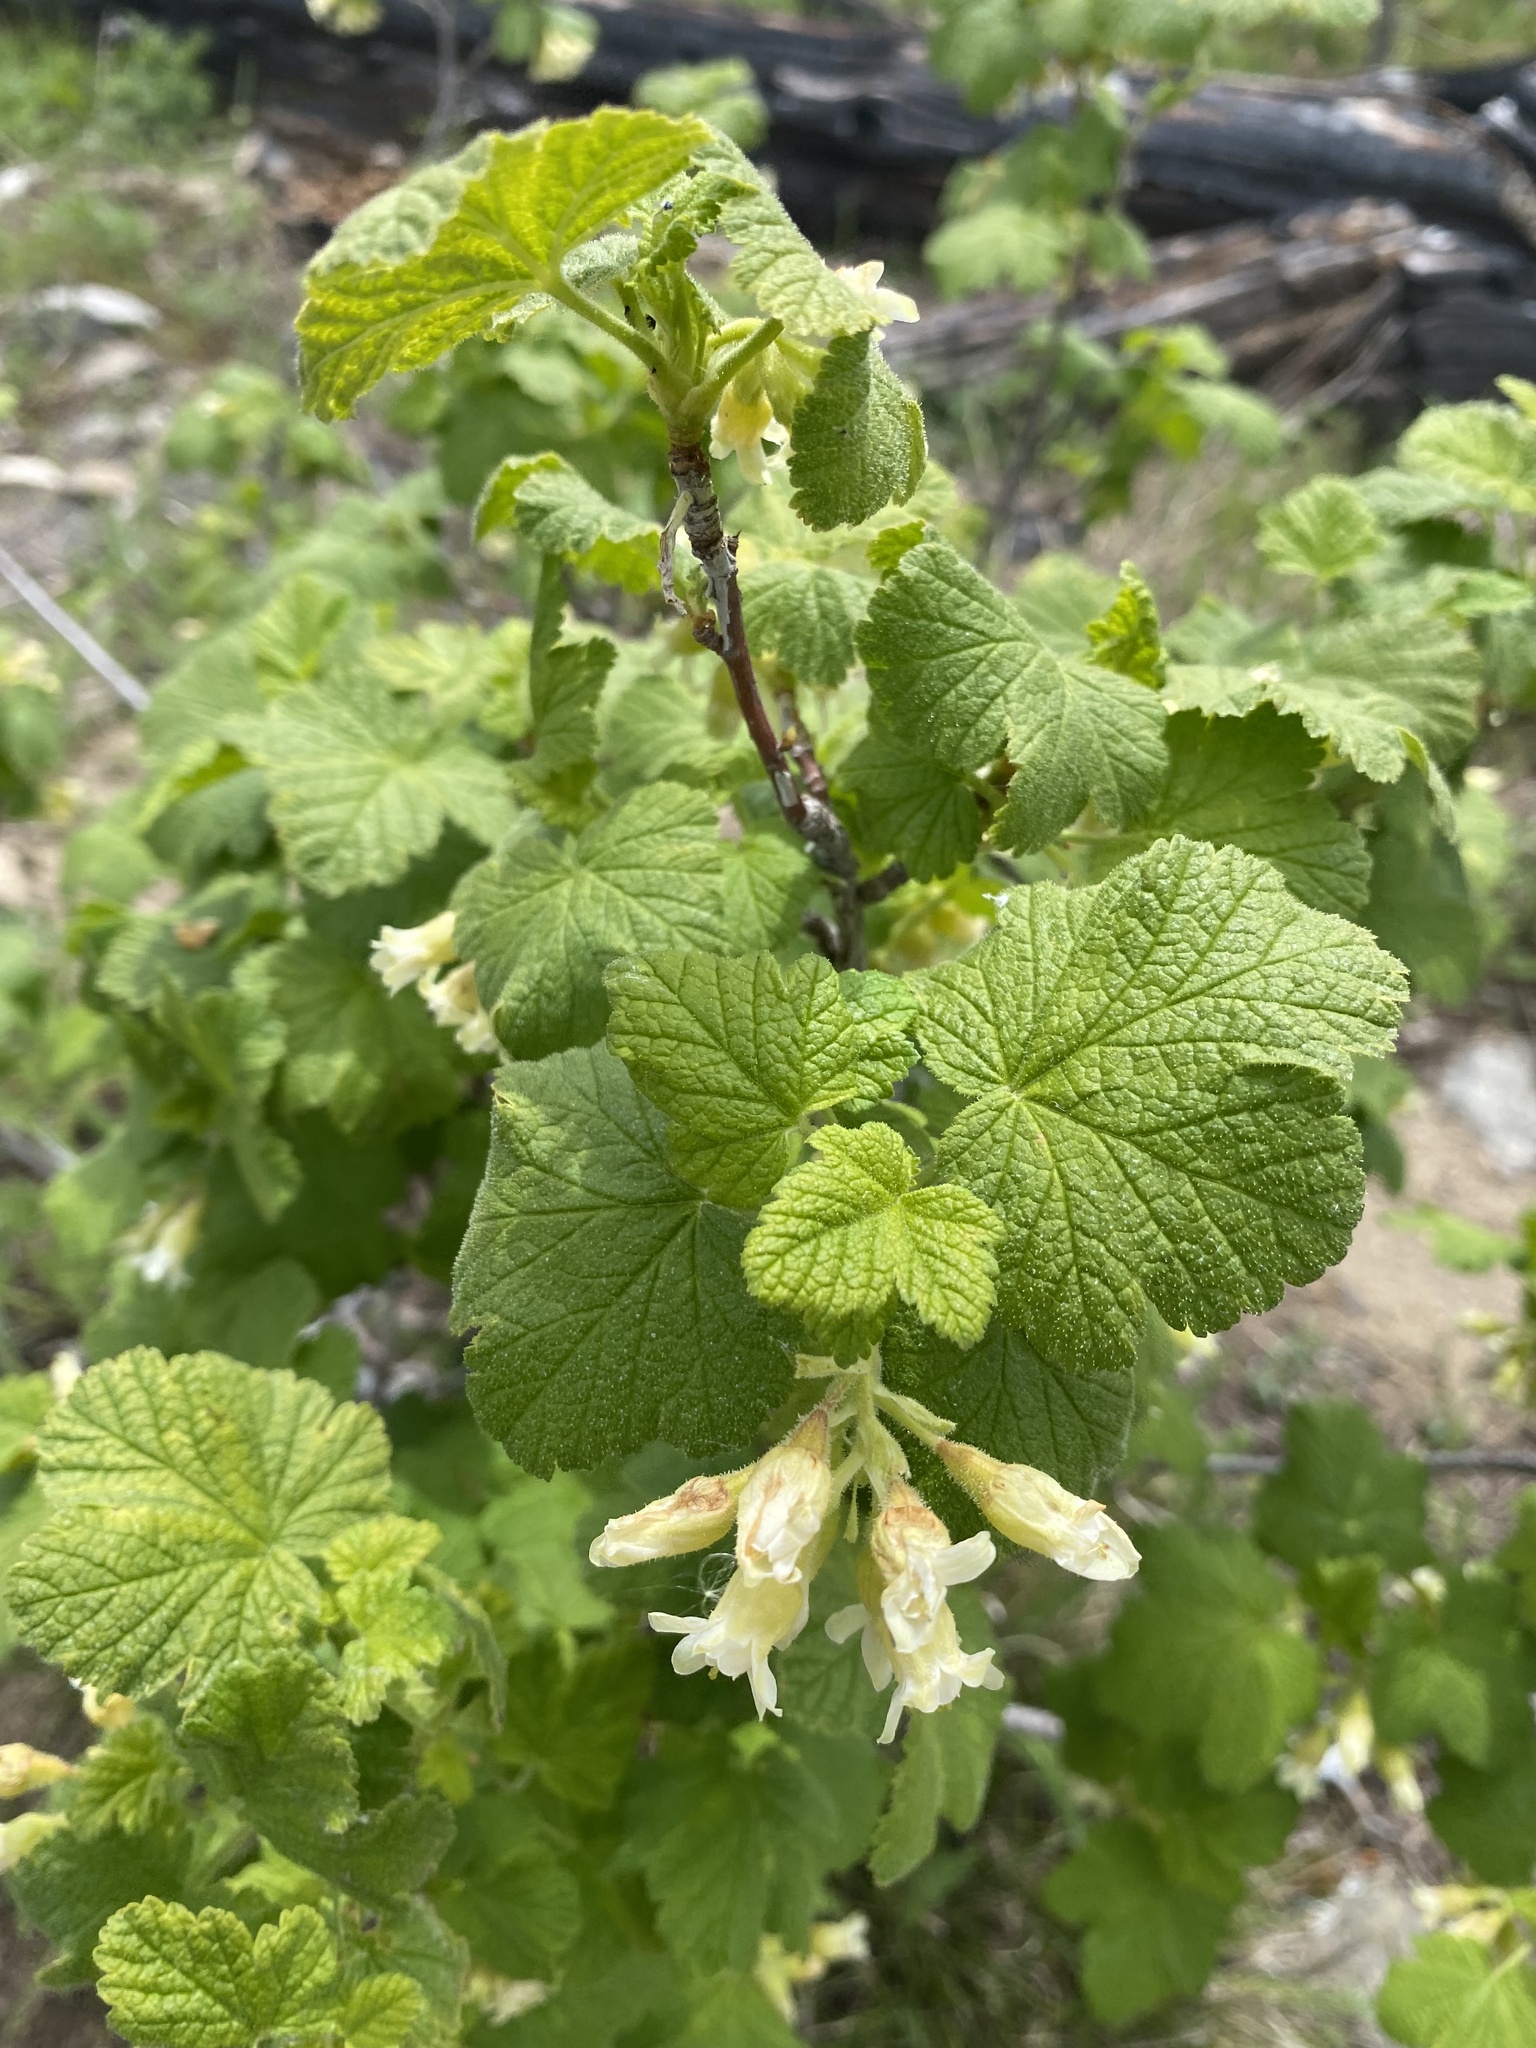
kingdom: Plantae
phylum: Tracheophyta
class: Magnoliopsida
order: Saxifragales
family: Grossulariaceae
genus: Ribes
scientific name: Ribes viscosissimum
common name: Sticky currant
